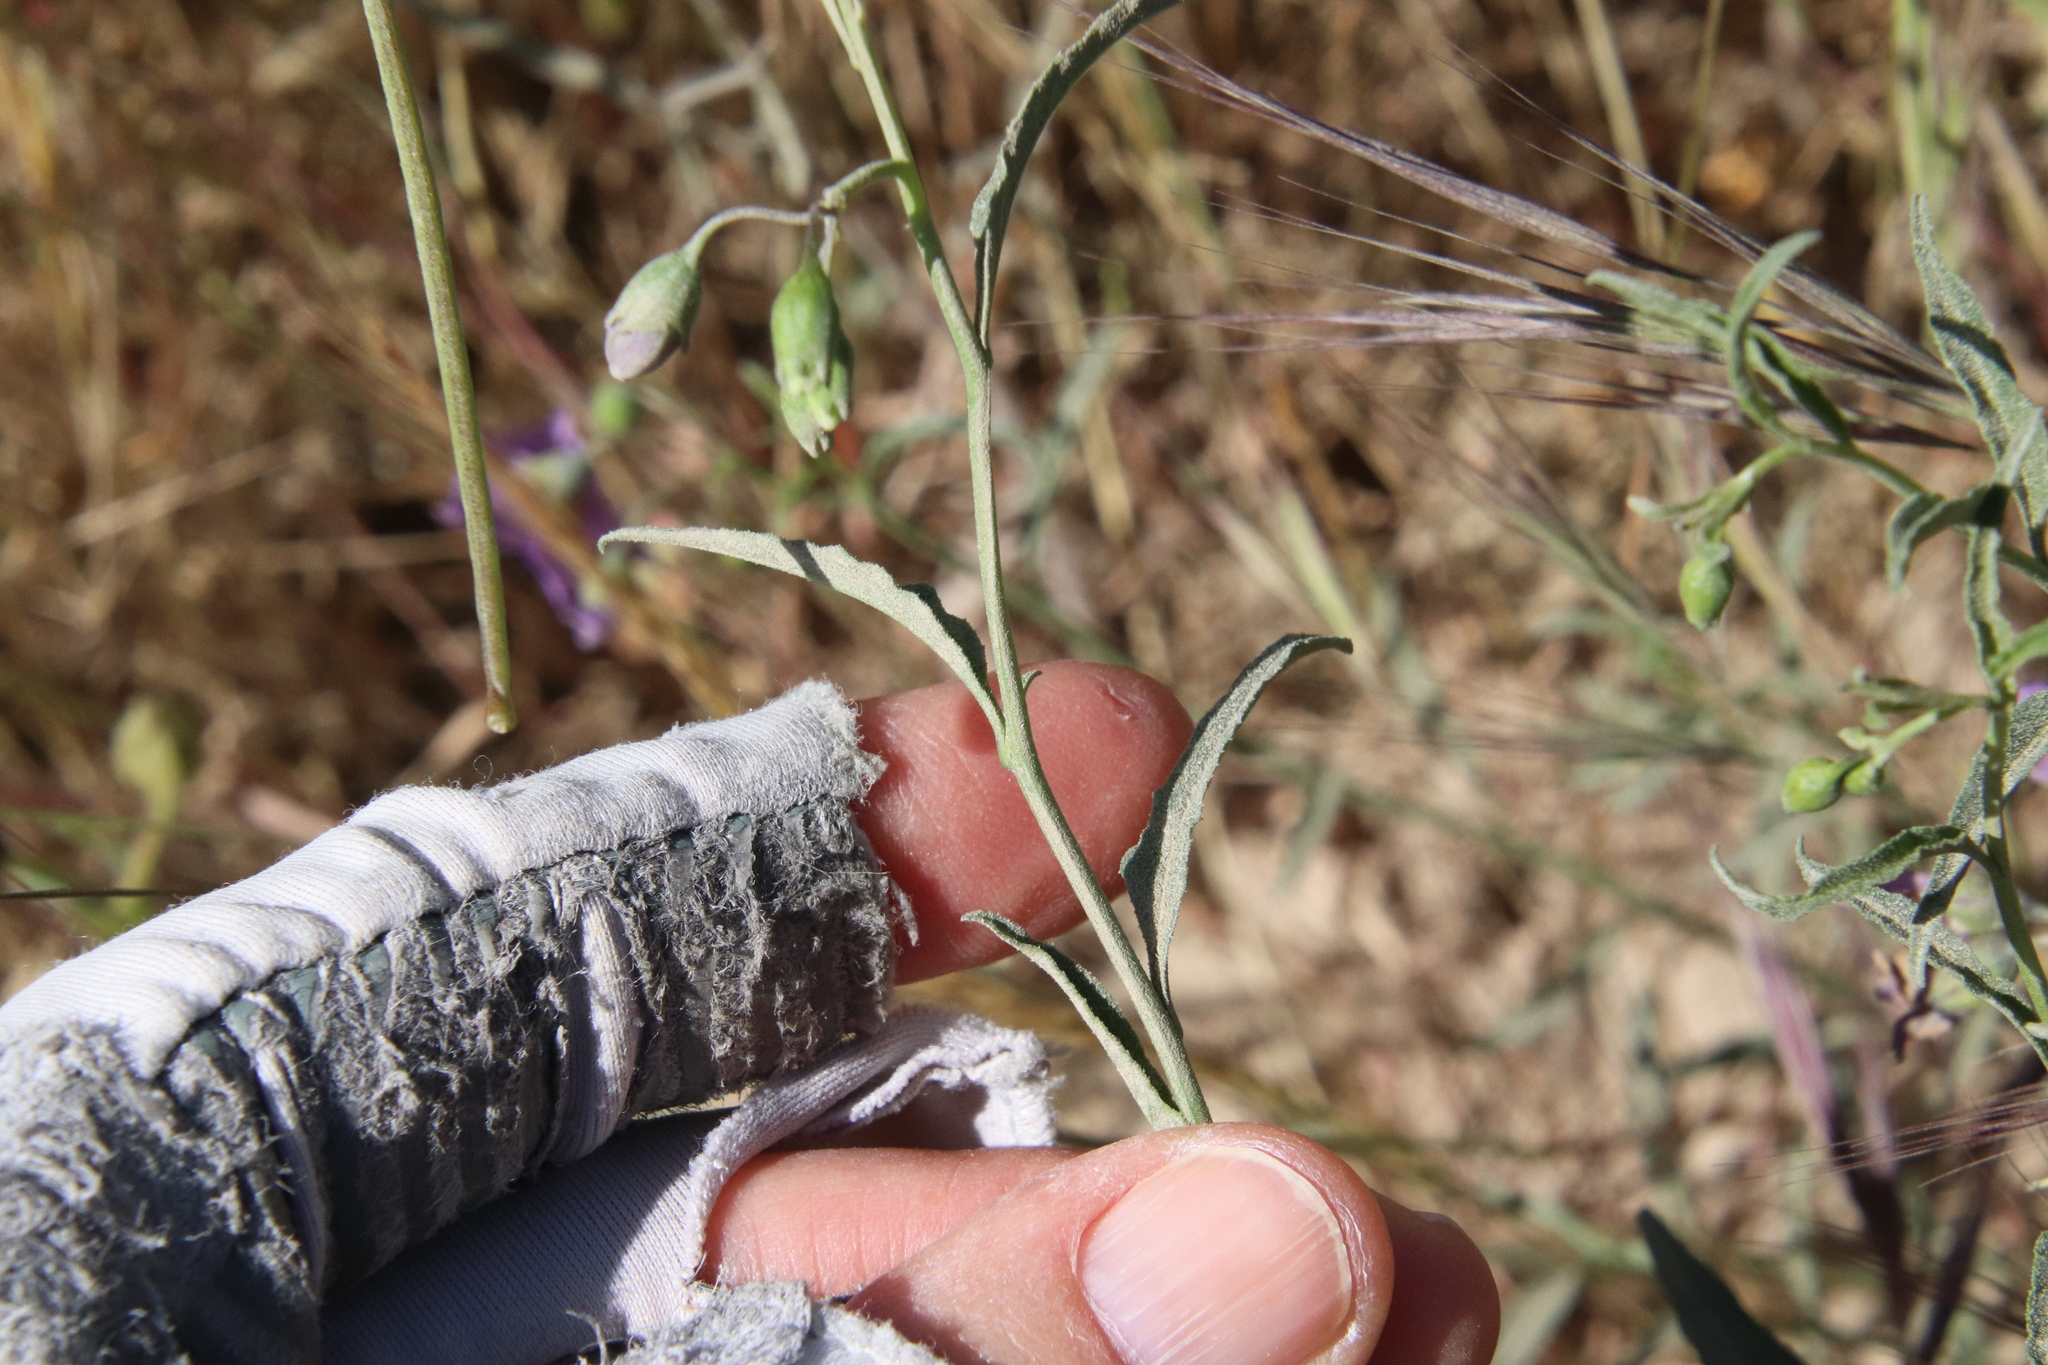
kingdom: Plantae
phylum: Tracheophyta
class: Magnoliopsida
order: Solanales
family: Solanaceae
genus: Solanum
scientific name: Solanum umbelliferum
